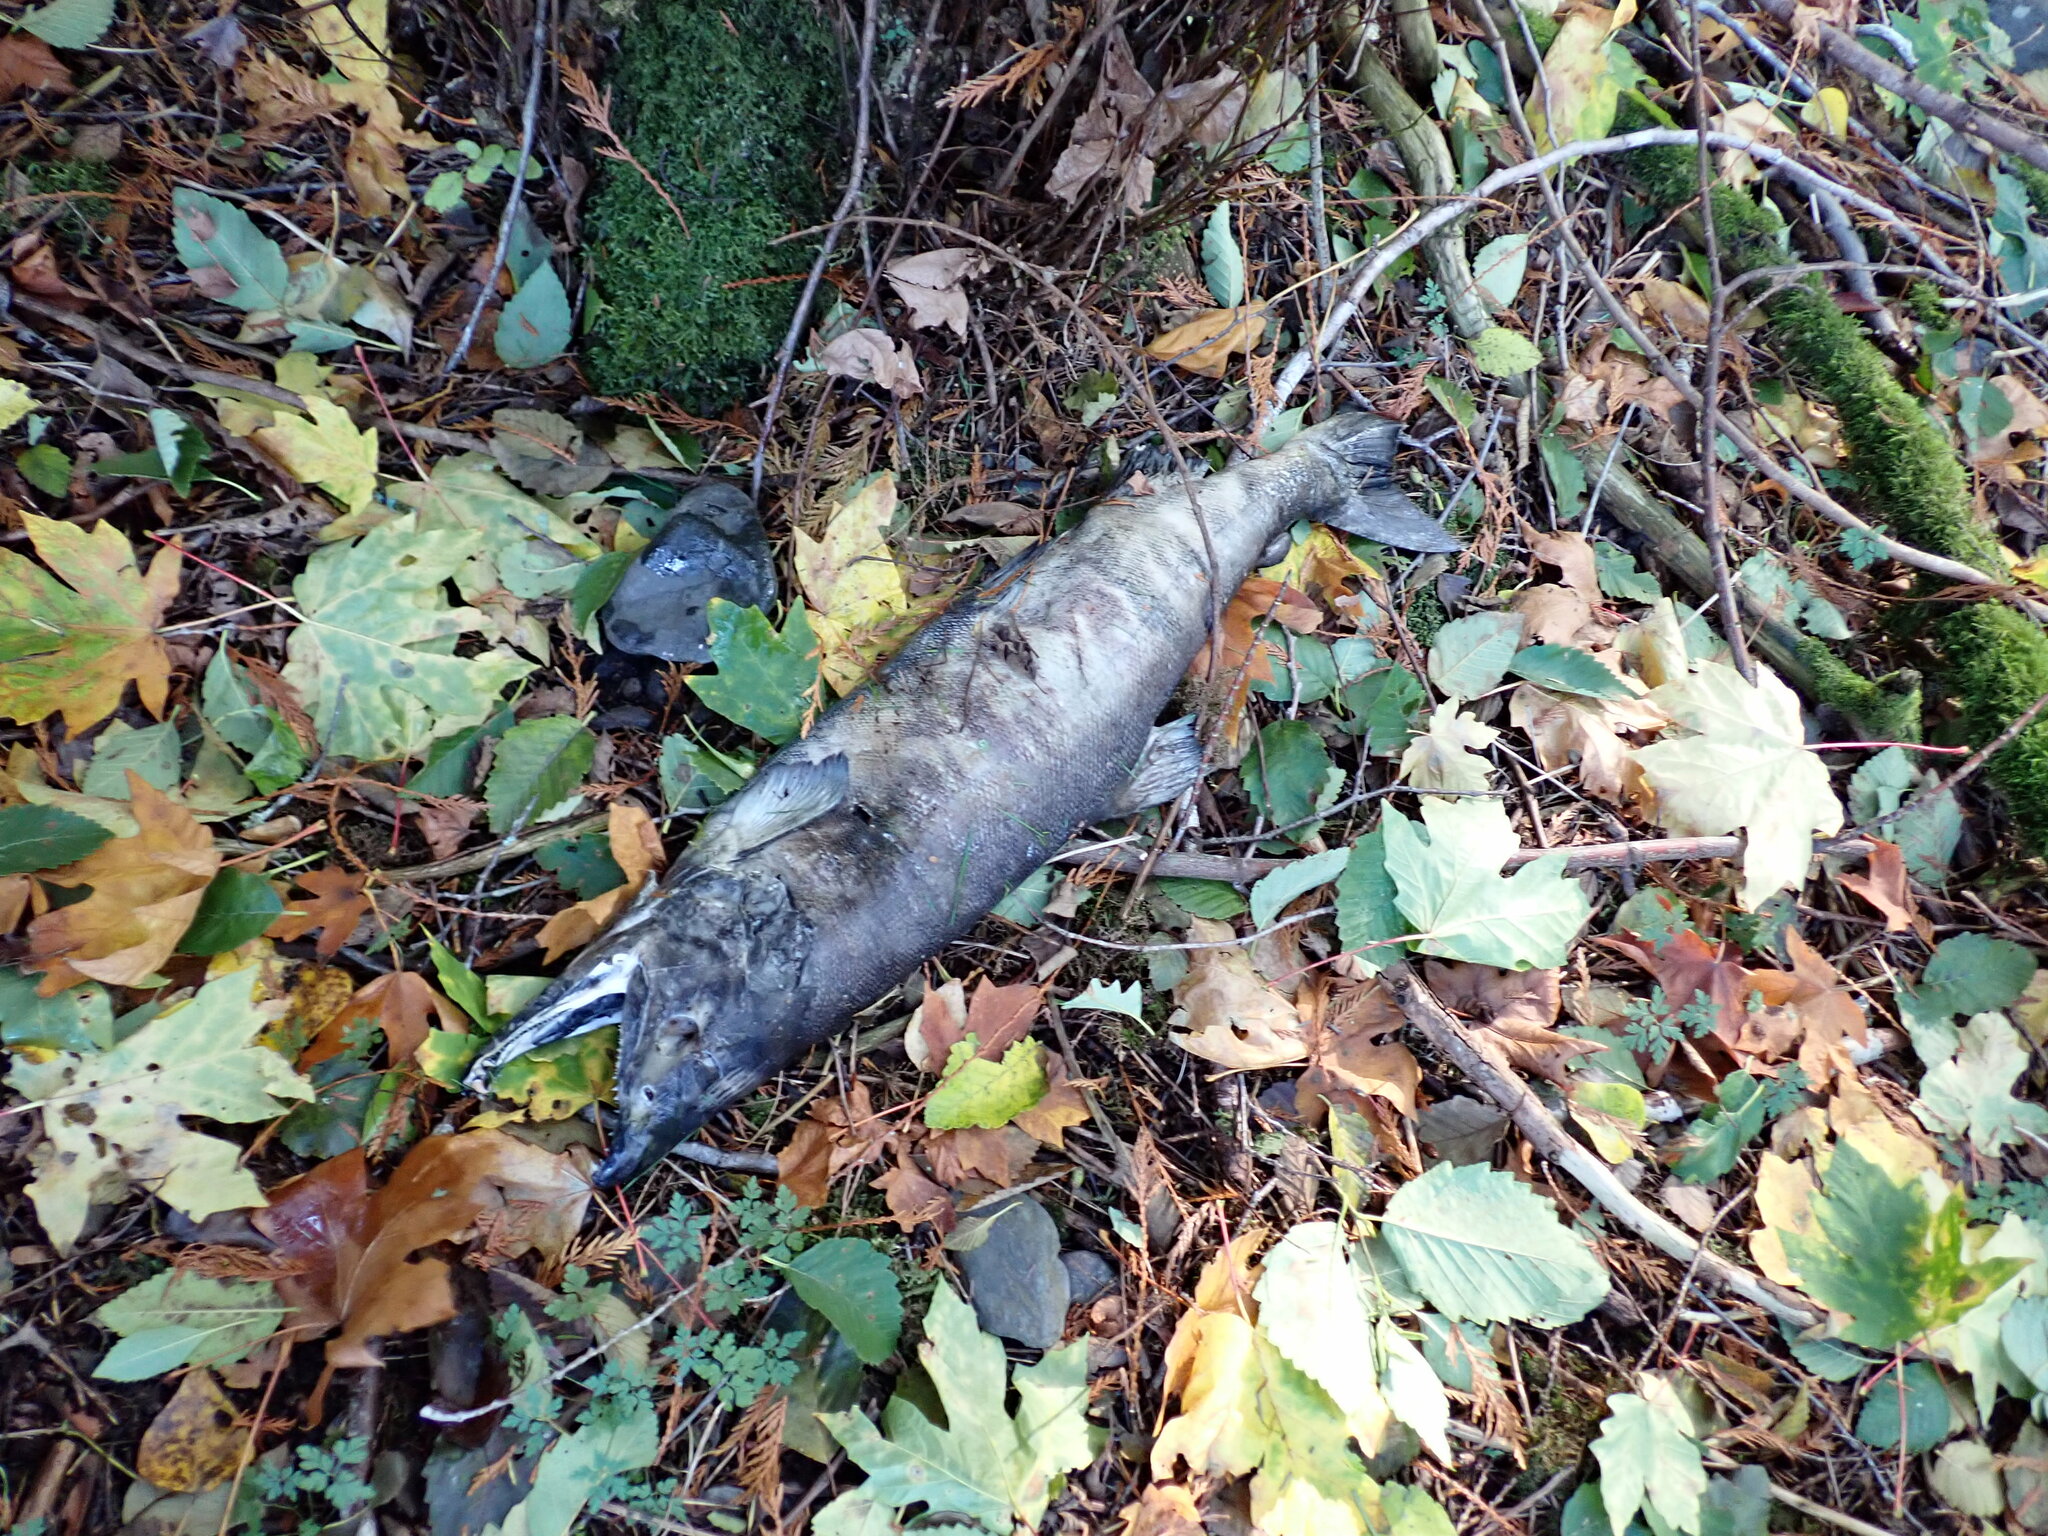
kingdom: Animalia
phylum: Chordata
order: Salmoniformes
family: Salmonidae
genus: Oncorhynchus
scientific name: Oncorhynchus keta
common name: Chum salmon
